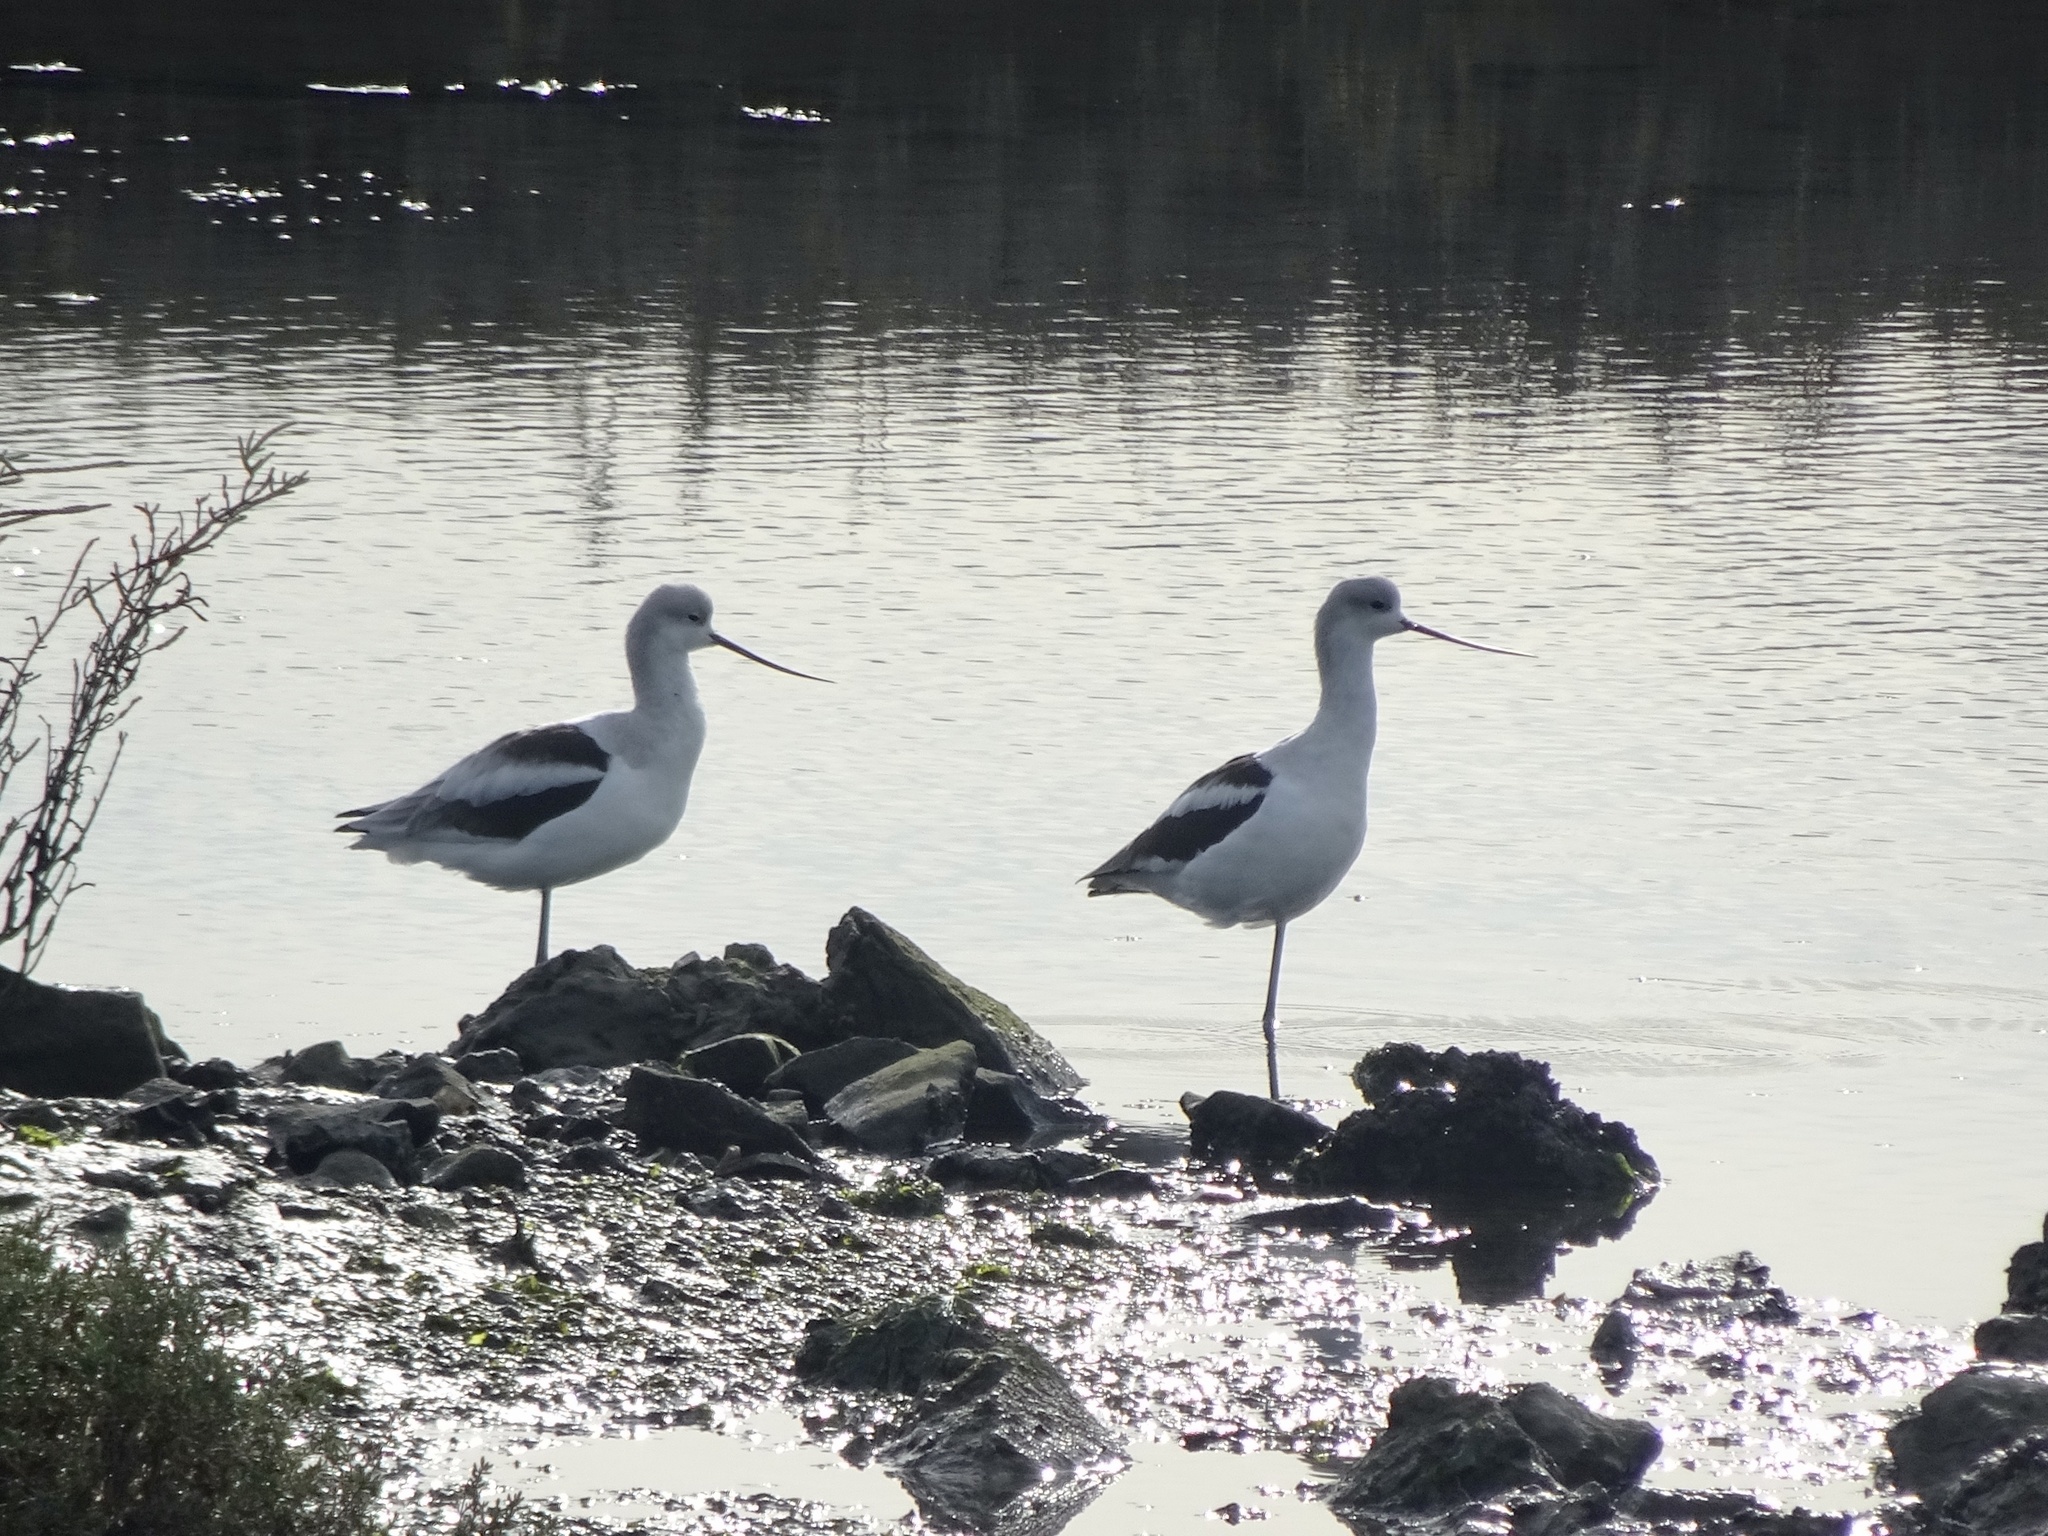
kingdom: Animalia
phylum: Chordata
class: Aves
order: Charadriiformes
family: Recurvirostridae
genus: Recurvirostra
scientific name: Recurvirostra americana
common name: American avocet
